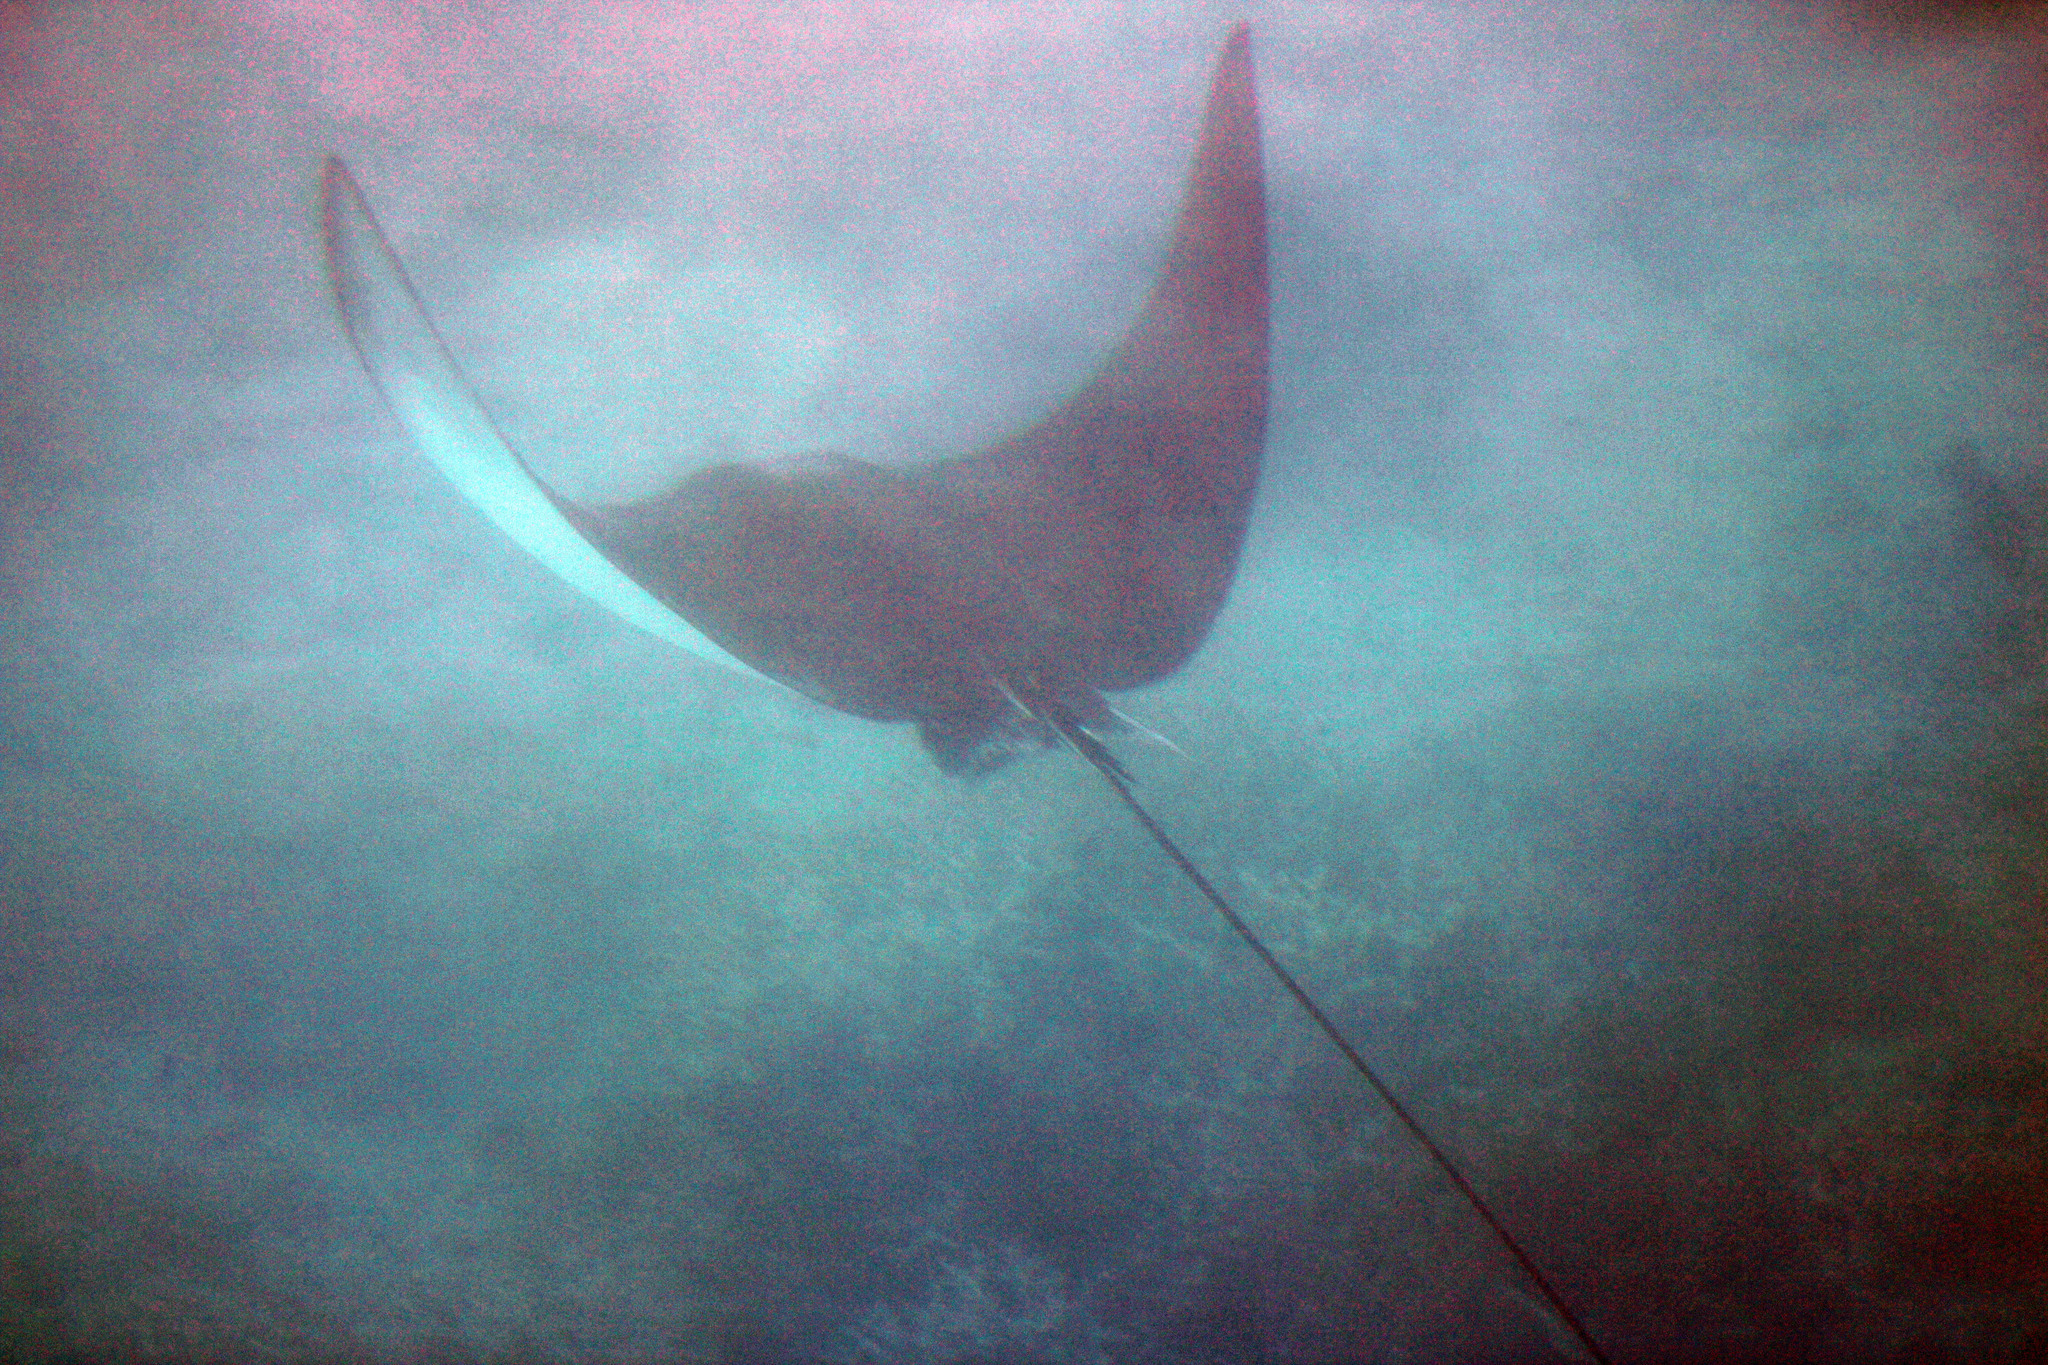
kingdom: Animalia
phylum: Chordata
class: Elasmobranchii
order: Myliobatiformes
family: Myliobatidae
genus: Aetobatus
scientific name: Aetobatus ocellatus
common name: Ocellated eagle ray
